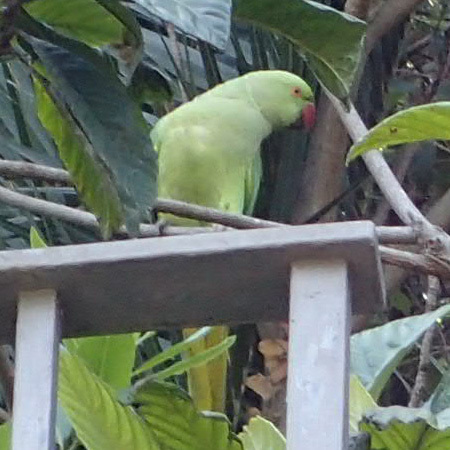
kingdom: Animalia
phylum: Chordata
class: Aves
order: Psittaciformes
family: Psittacidae
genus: Psittacula
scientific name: Psittacula krameri
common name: Rose-ringed parakeet
